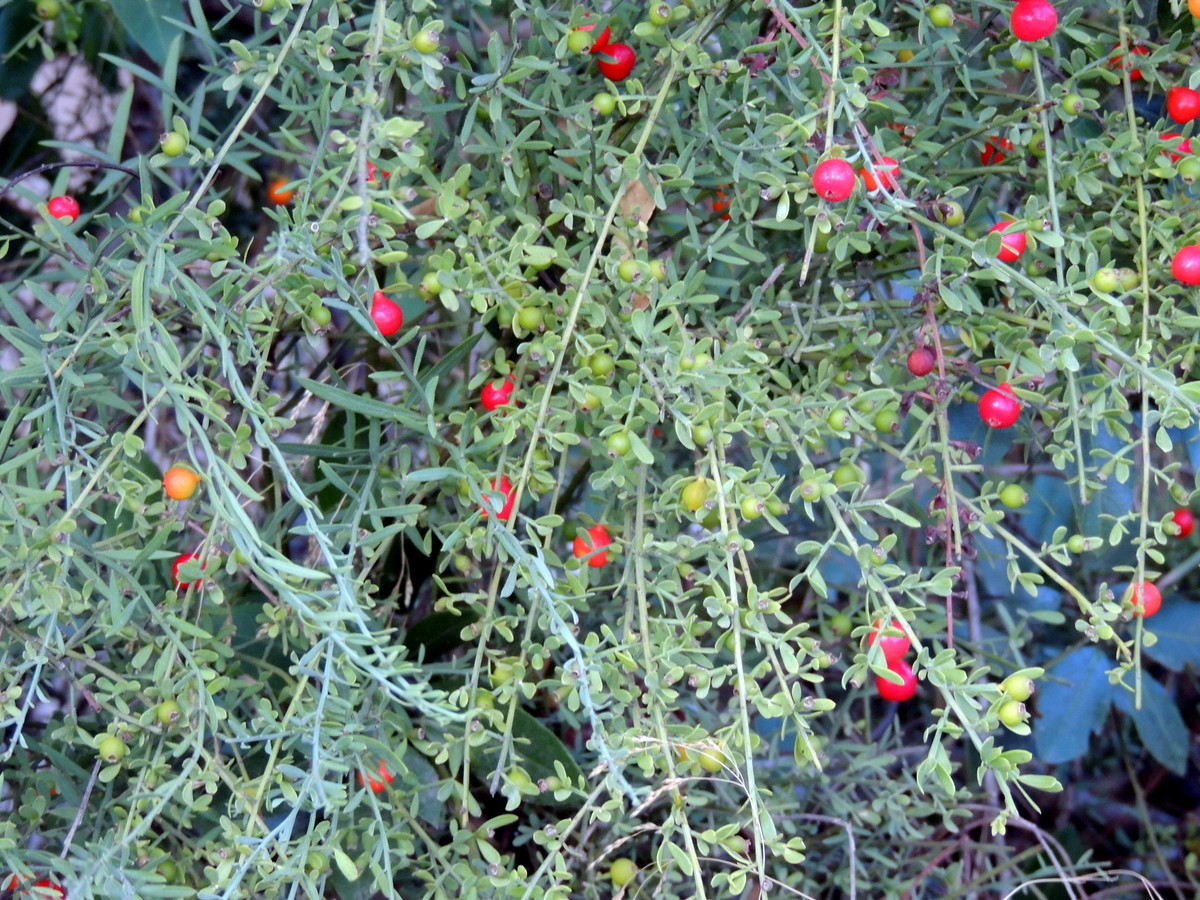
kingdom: Plantae
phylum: Tracheophyta
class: Magnoliopsida
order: Santalales
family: Santalaceae
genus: Osyris
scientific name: Osyris alba
